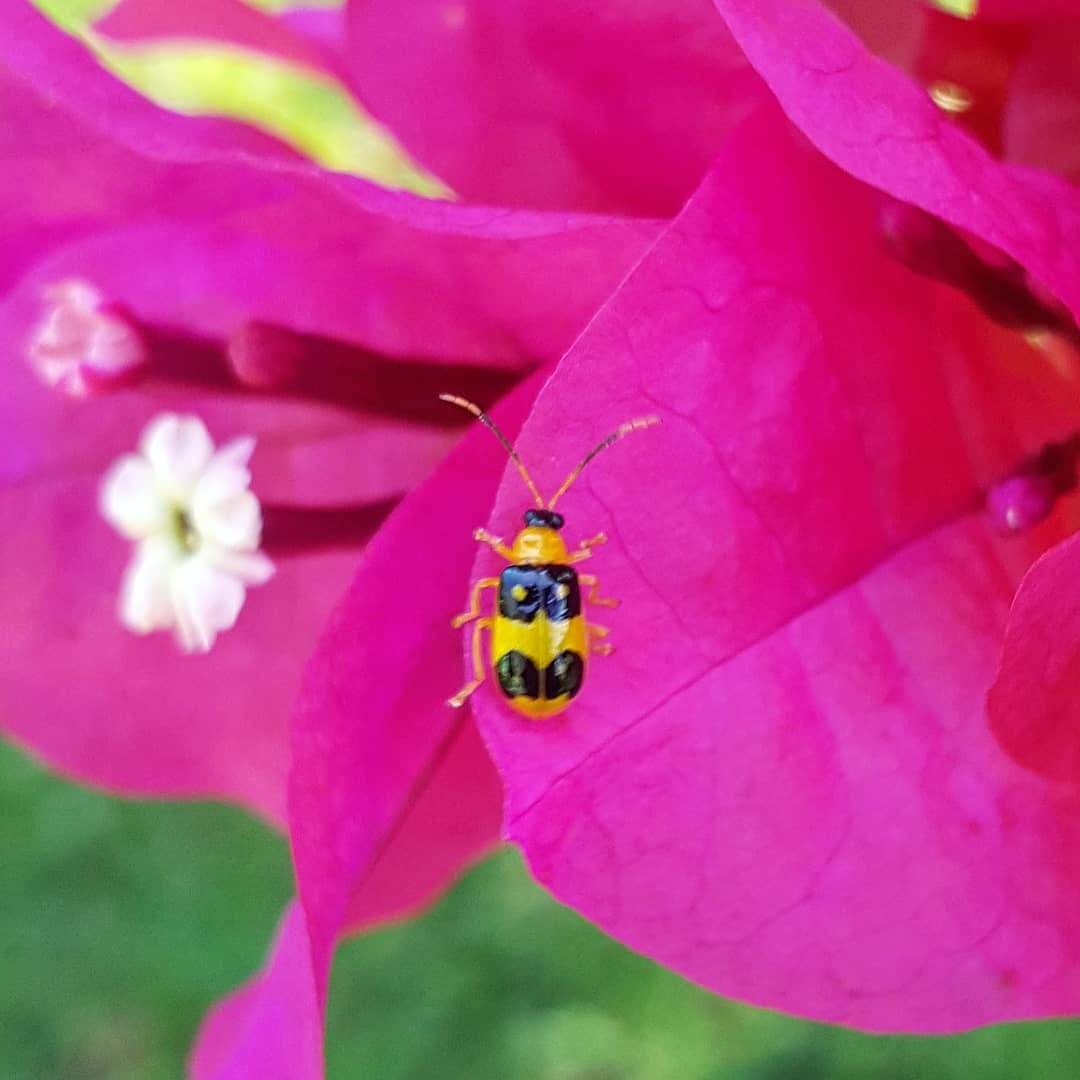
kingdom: Animalia
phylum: Arthropoda
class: Insecta
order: Coleoptera
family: Chrysomelidae
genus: Diabrotica
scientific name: Diabrotica
